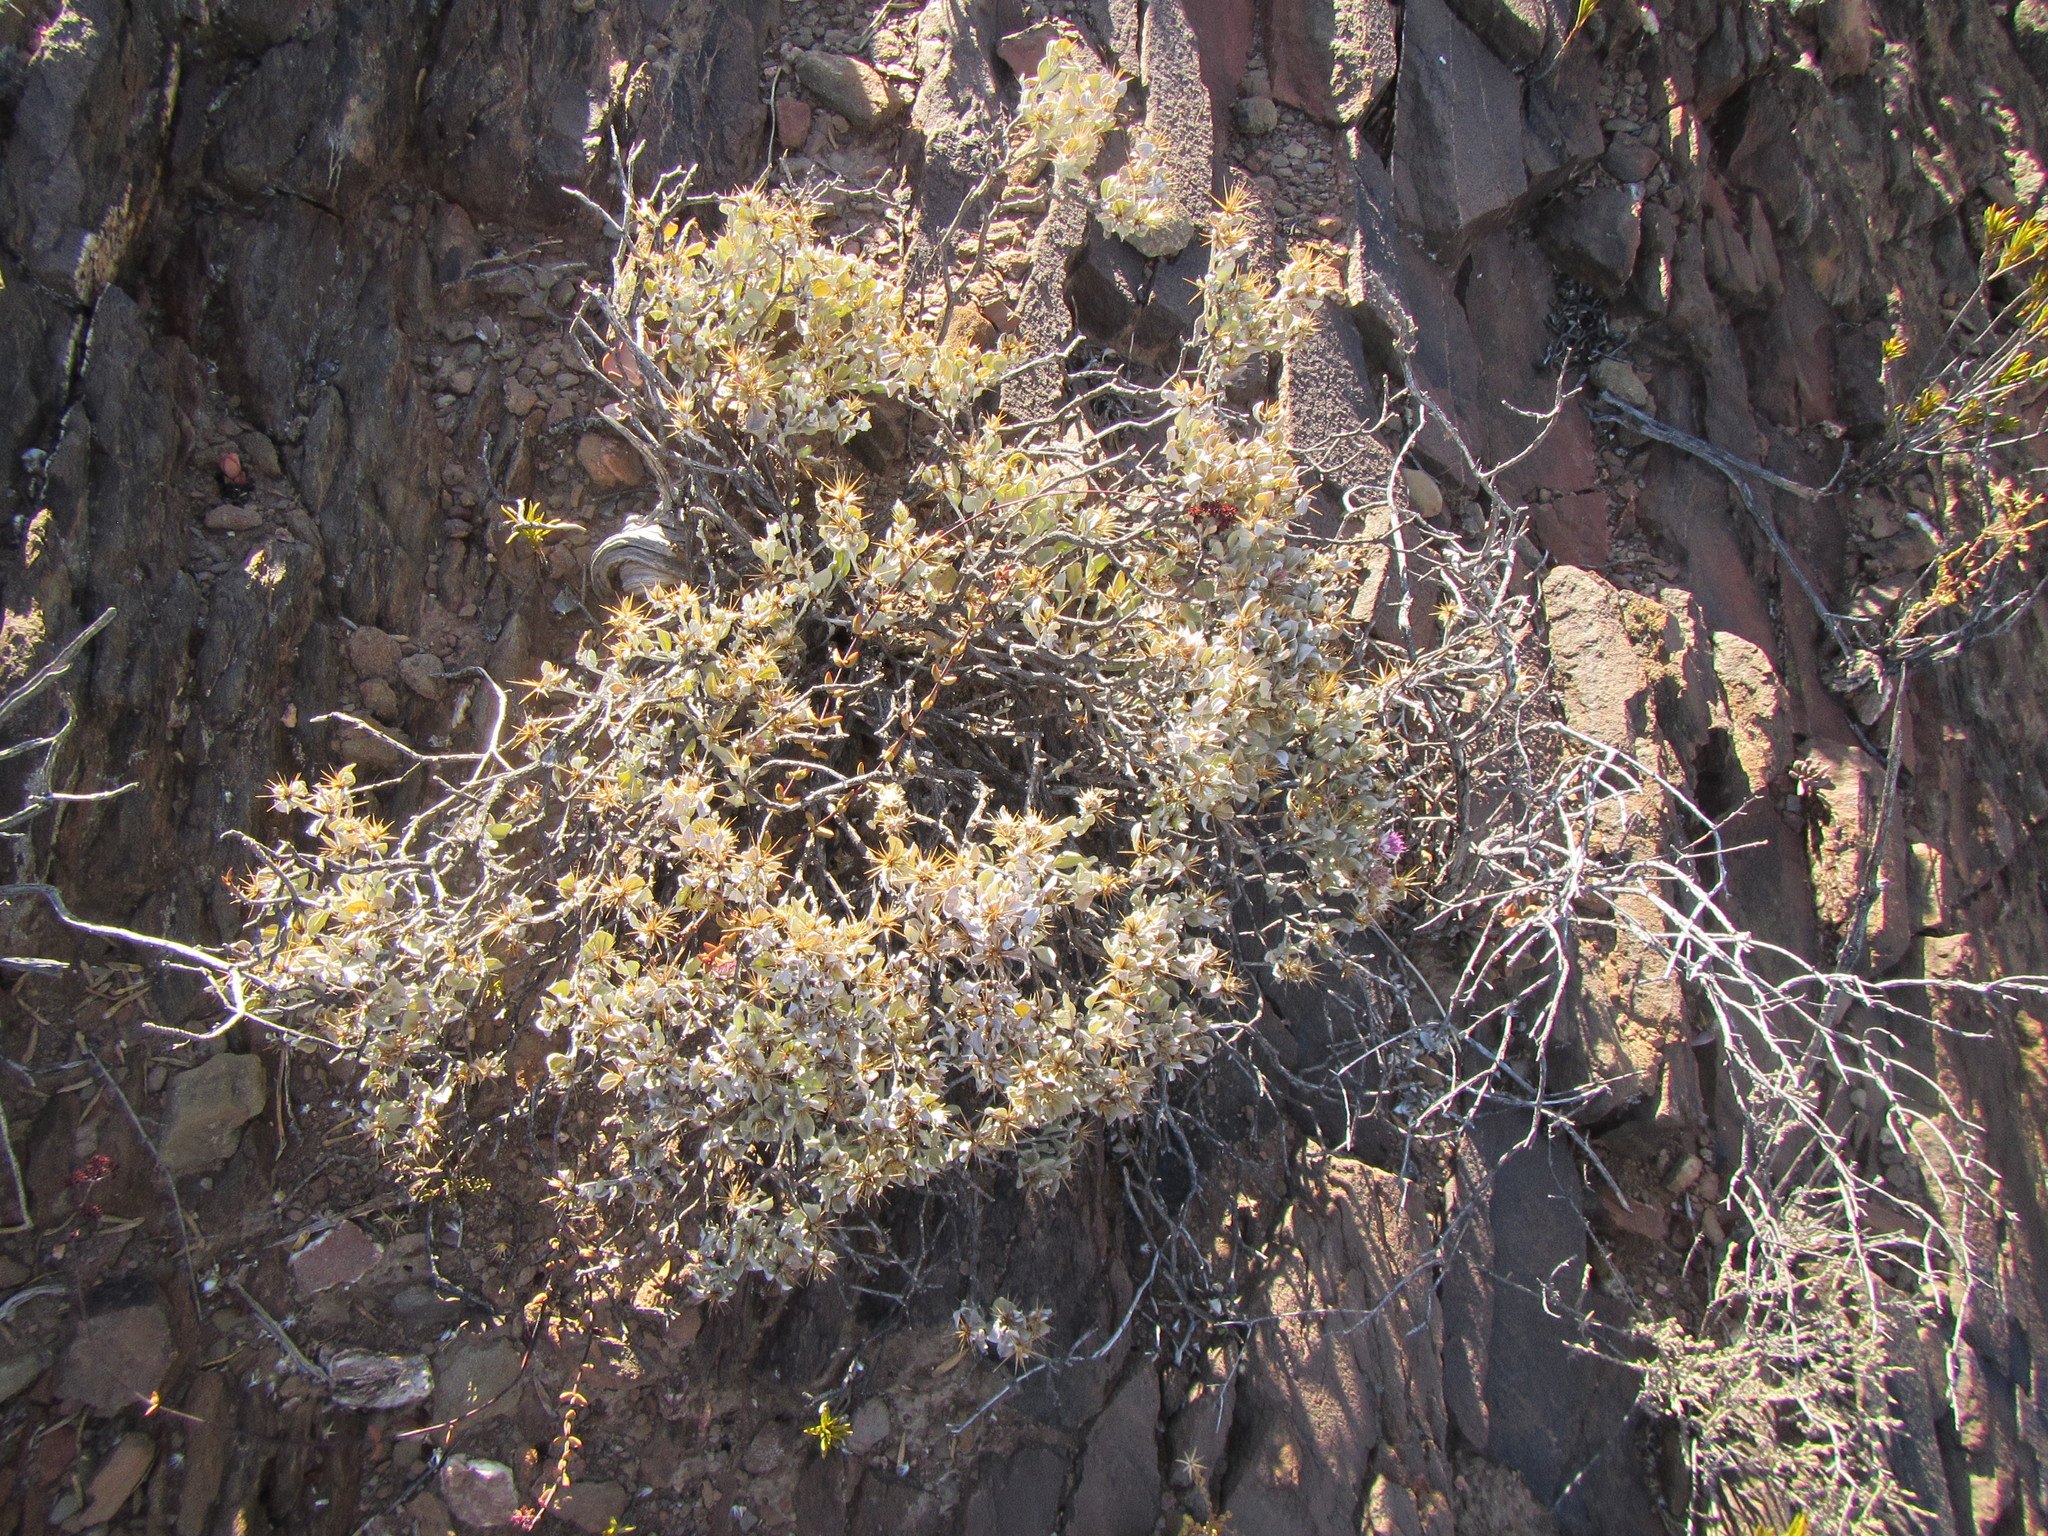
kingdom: Plantae
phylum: Tracheophyta
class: Magnoliopsida
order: Asterales
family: Asteraceae
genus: Macledium
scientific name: Macledium spinosum
